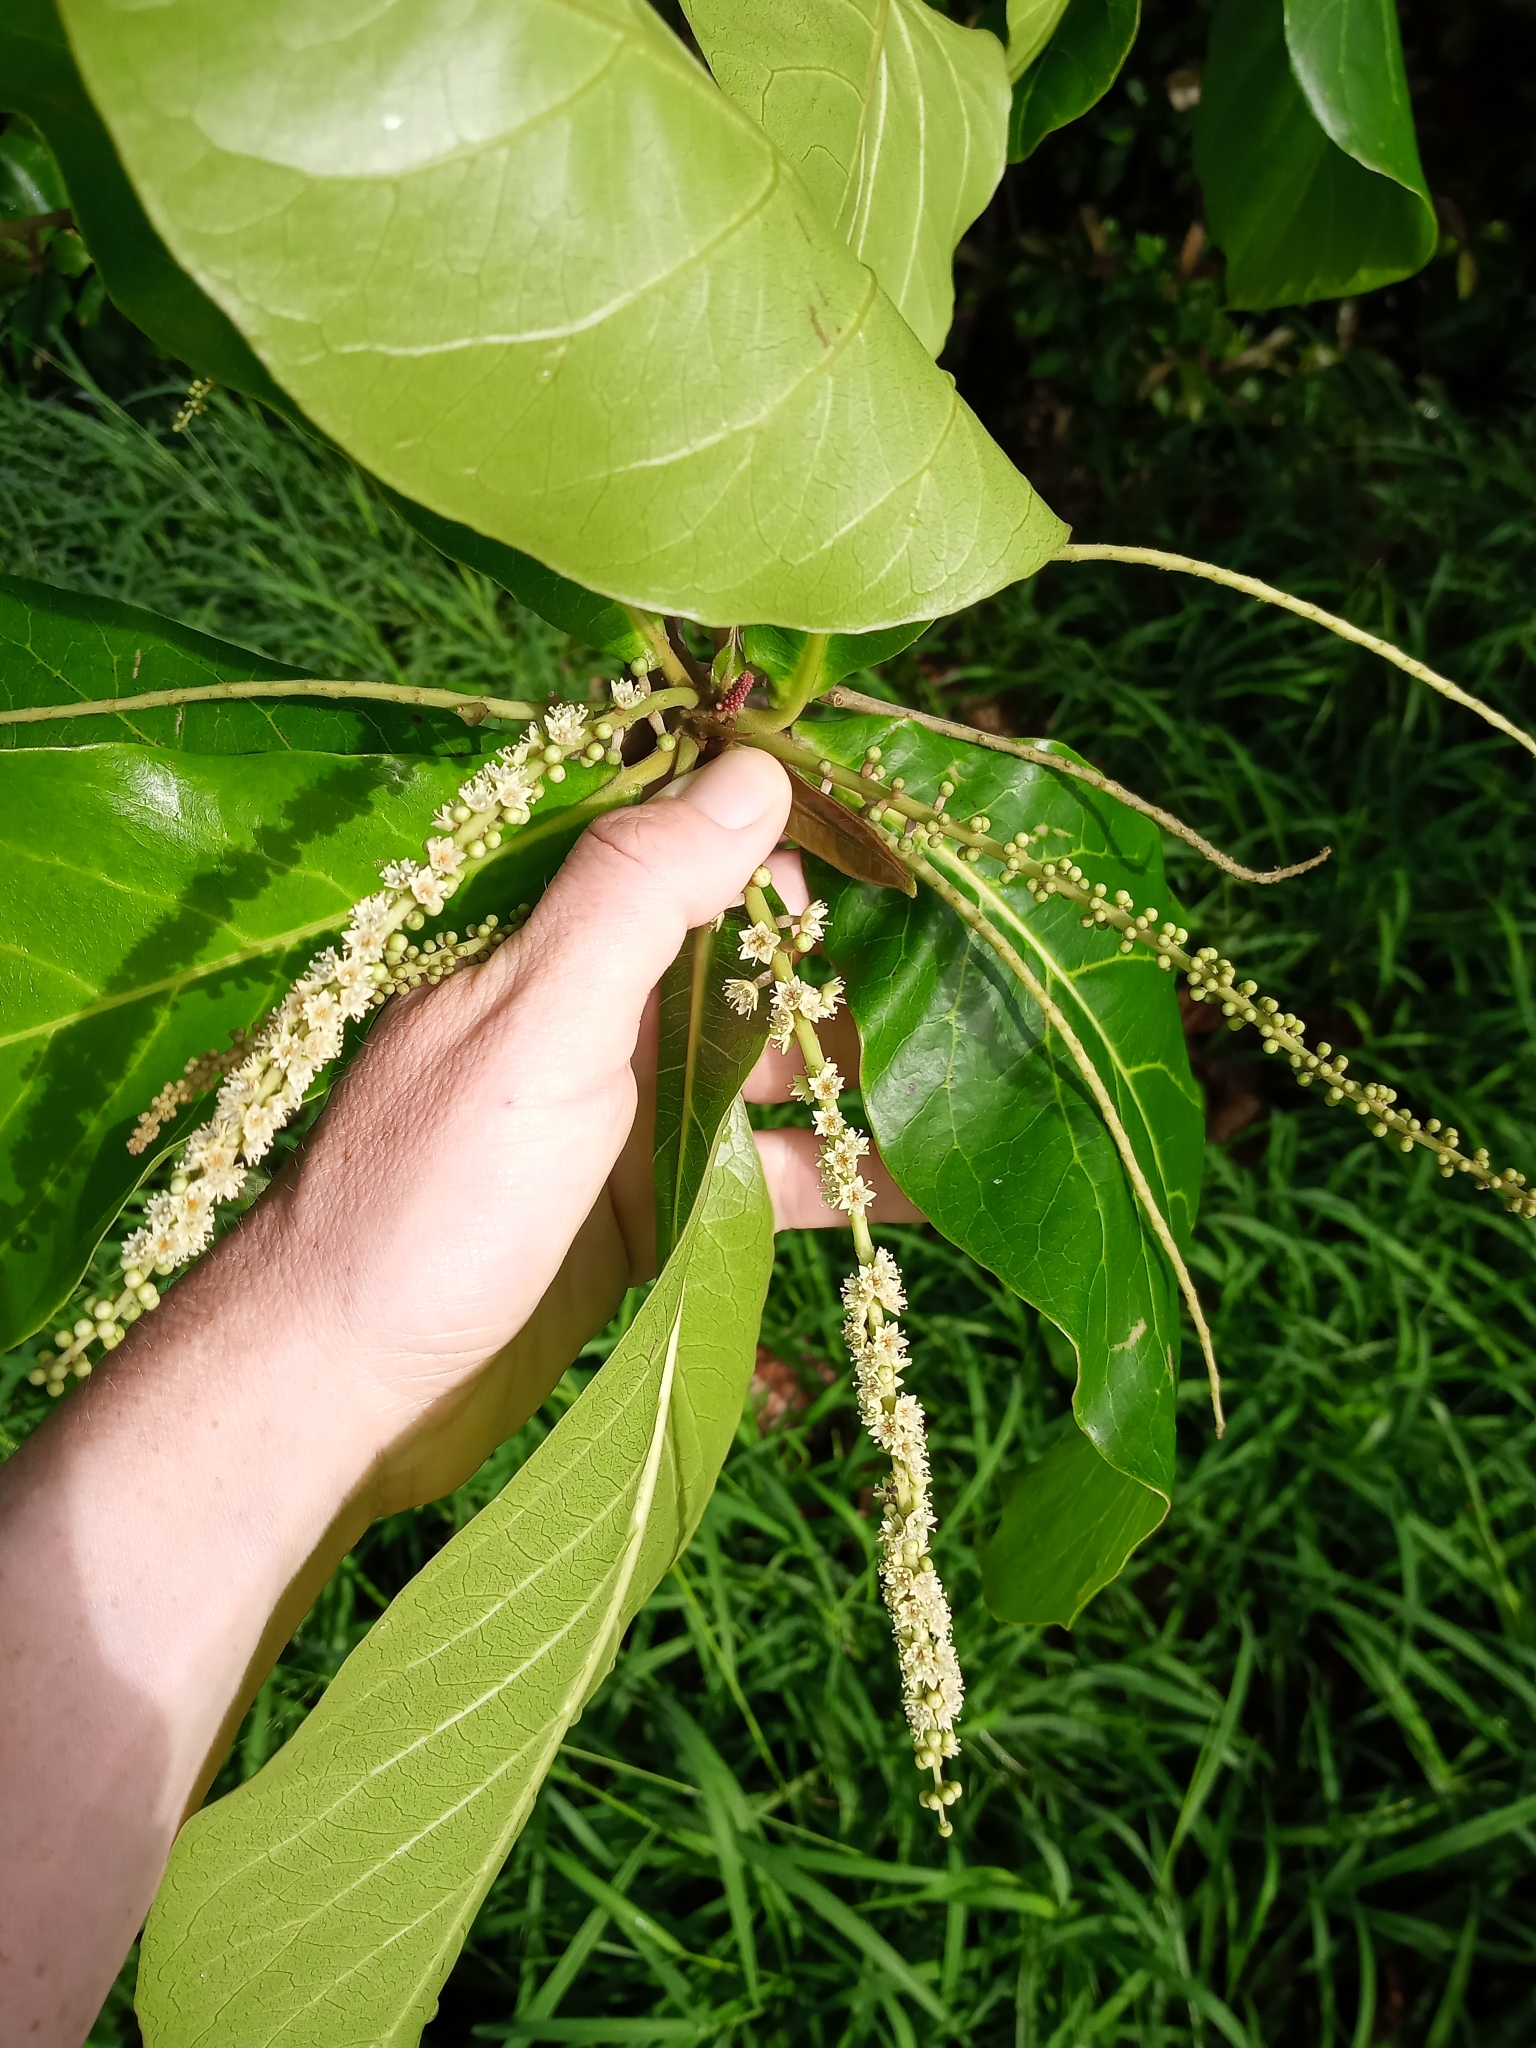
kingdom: Plantae
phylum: Tracheophyta
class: Magnoliopsida
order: Myrtales
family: Combretaceae
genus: Terminalia
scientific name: Terminalia catappa
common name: Tropical almond
